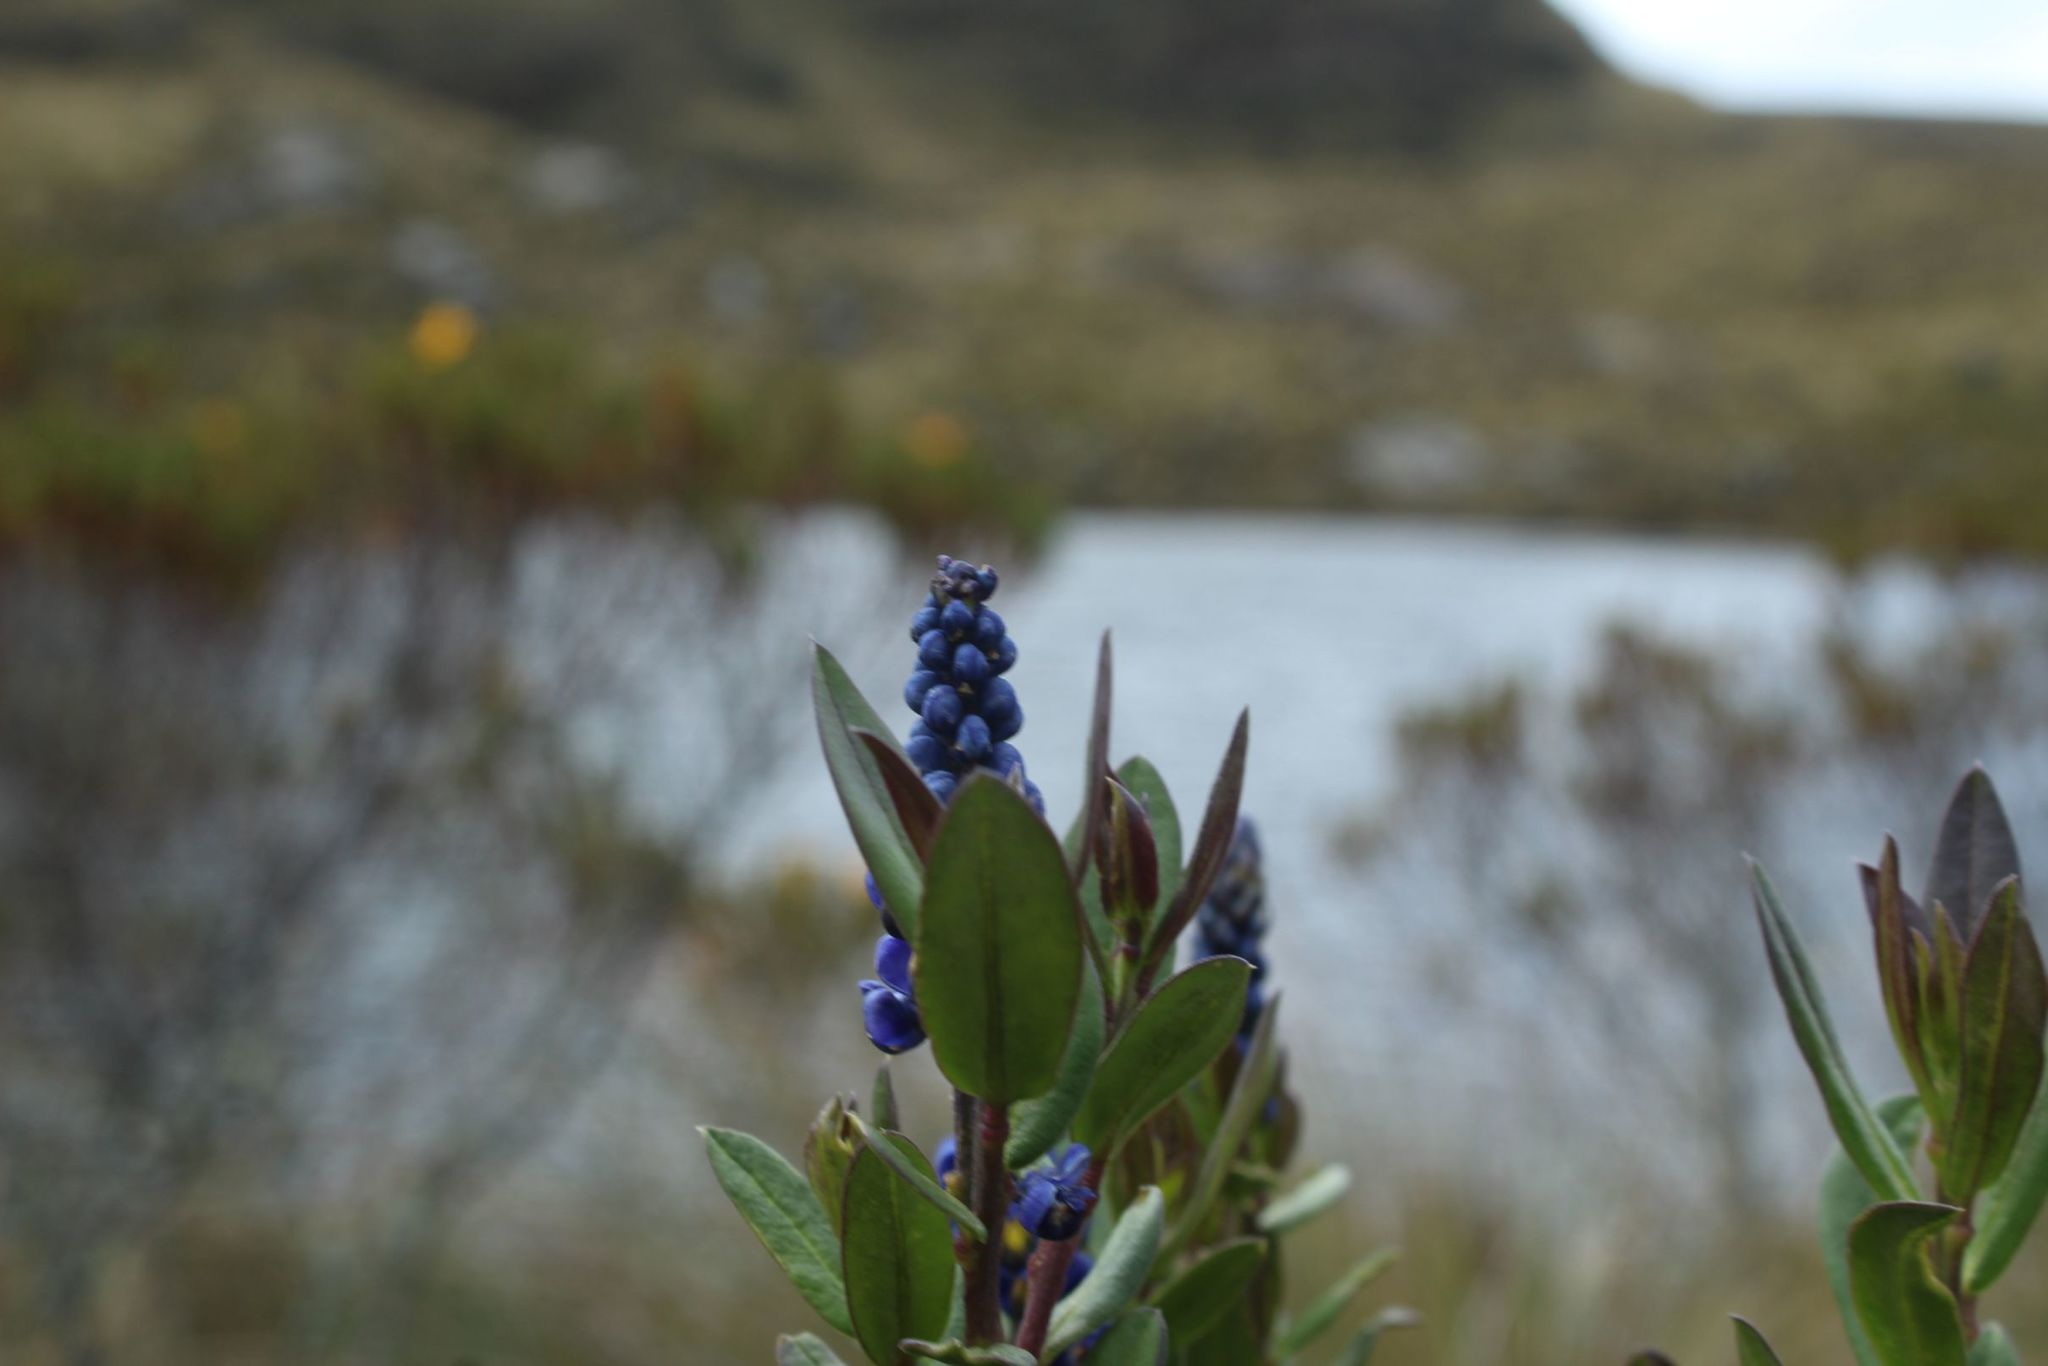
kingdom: Plantae
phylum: Tracheophyta
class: Magnoliopsida
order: Fabales
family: Polygalaceae
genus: Monnina
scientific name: Monnina aestuans
